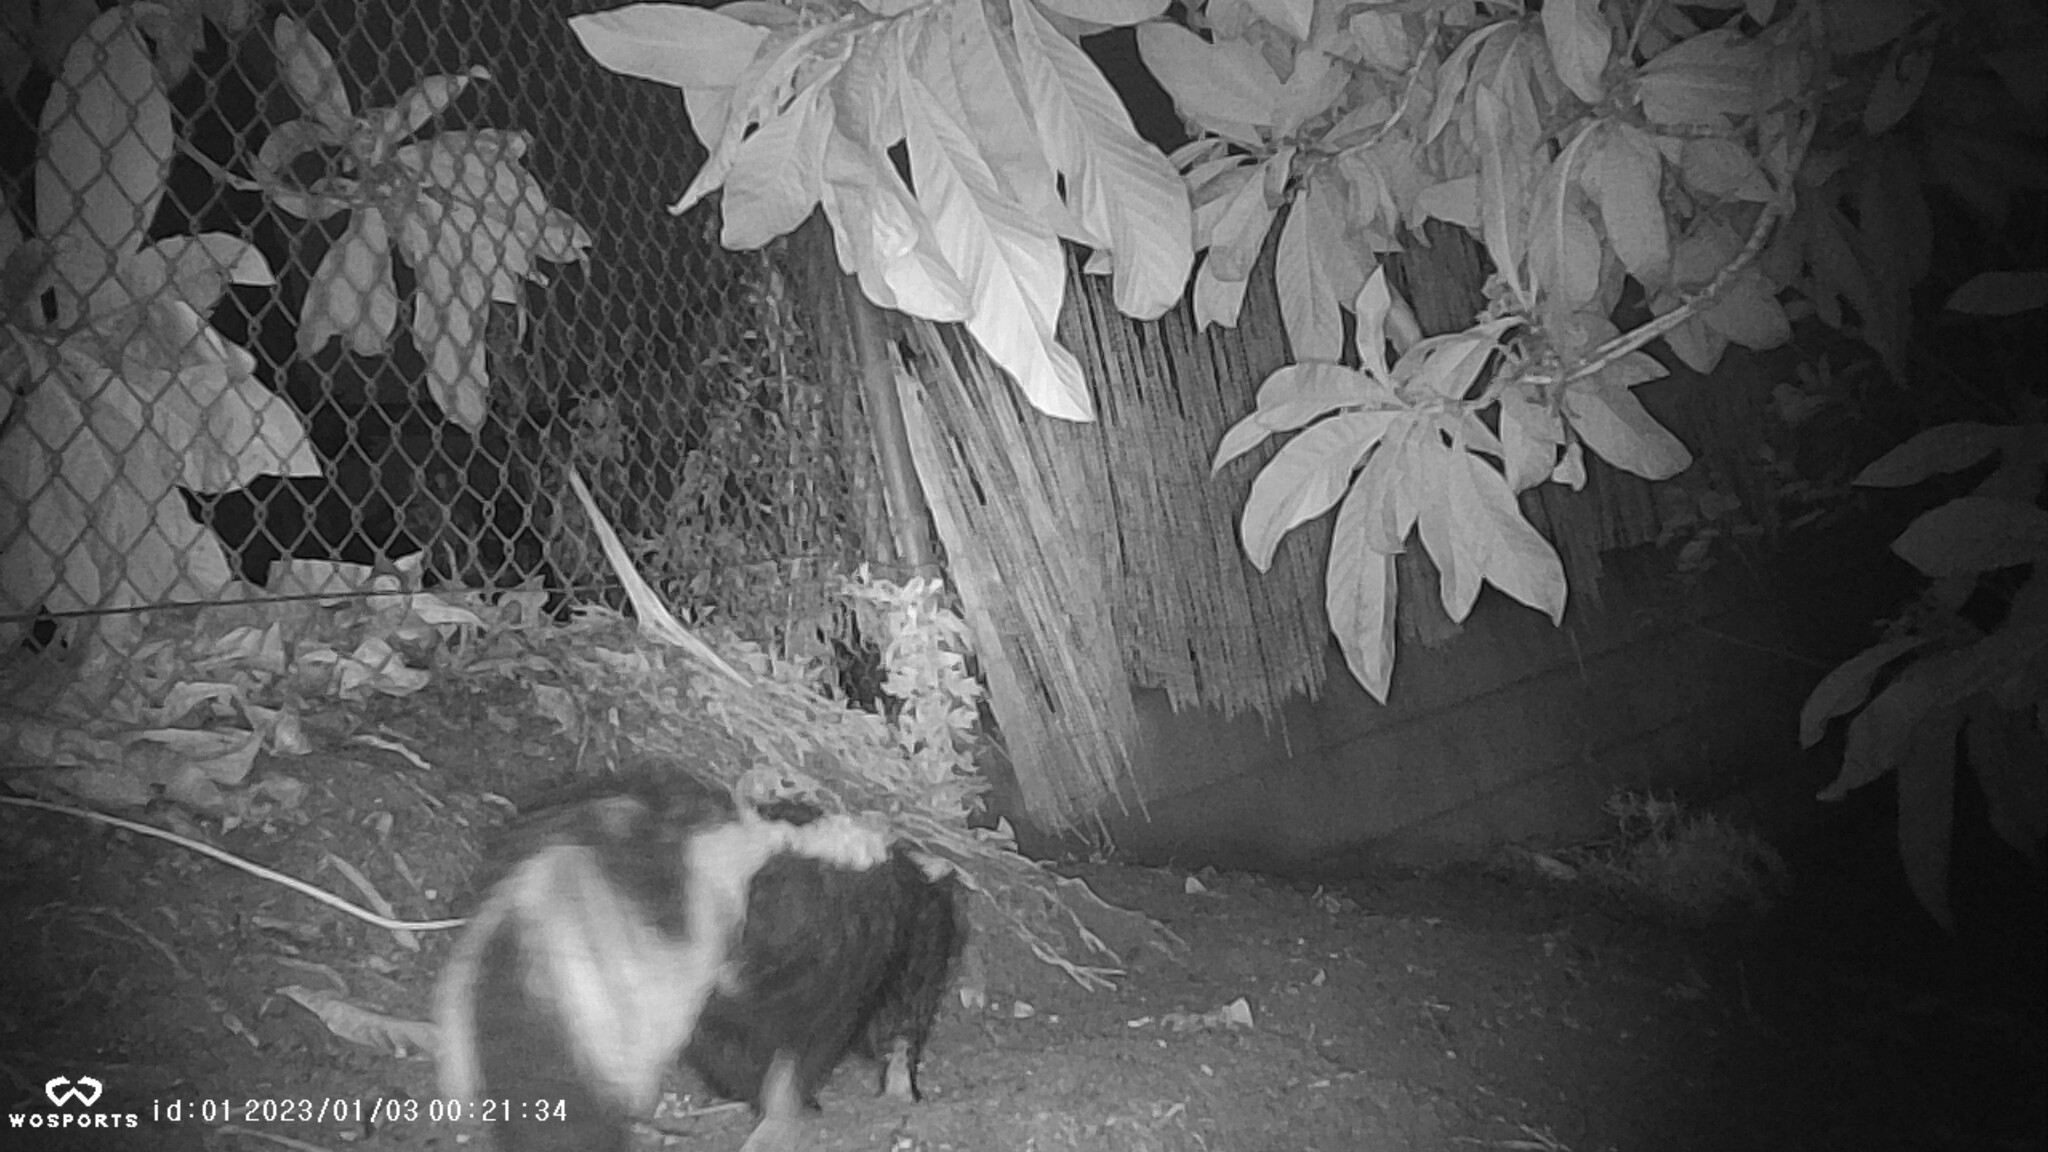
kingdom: Animalia
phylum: Chordata
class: Mammalia
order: Carnivora
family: Mephitidae
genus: Mephitis
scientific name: Mephitis mephitis
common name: Striped skunk
